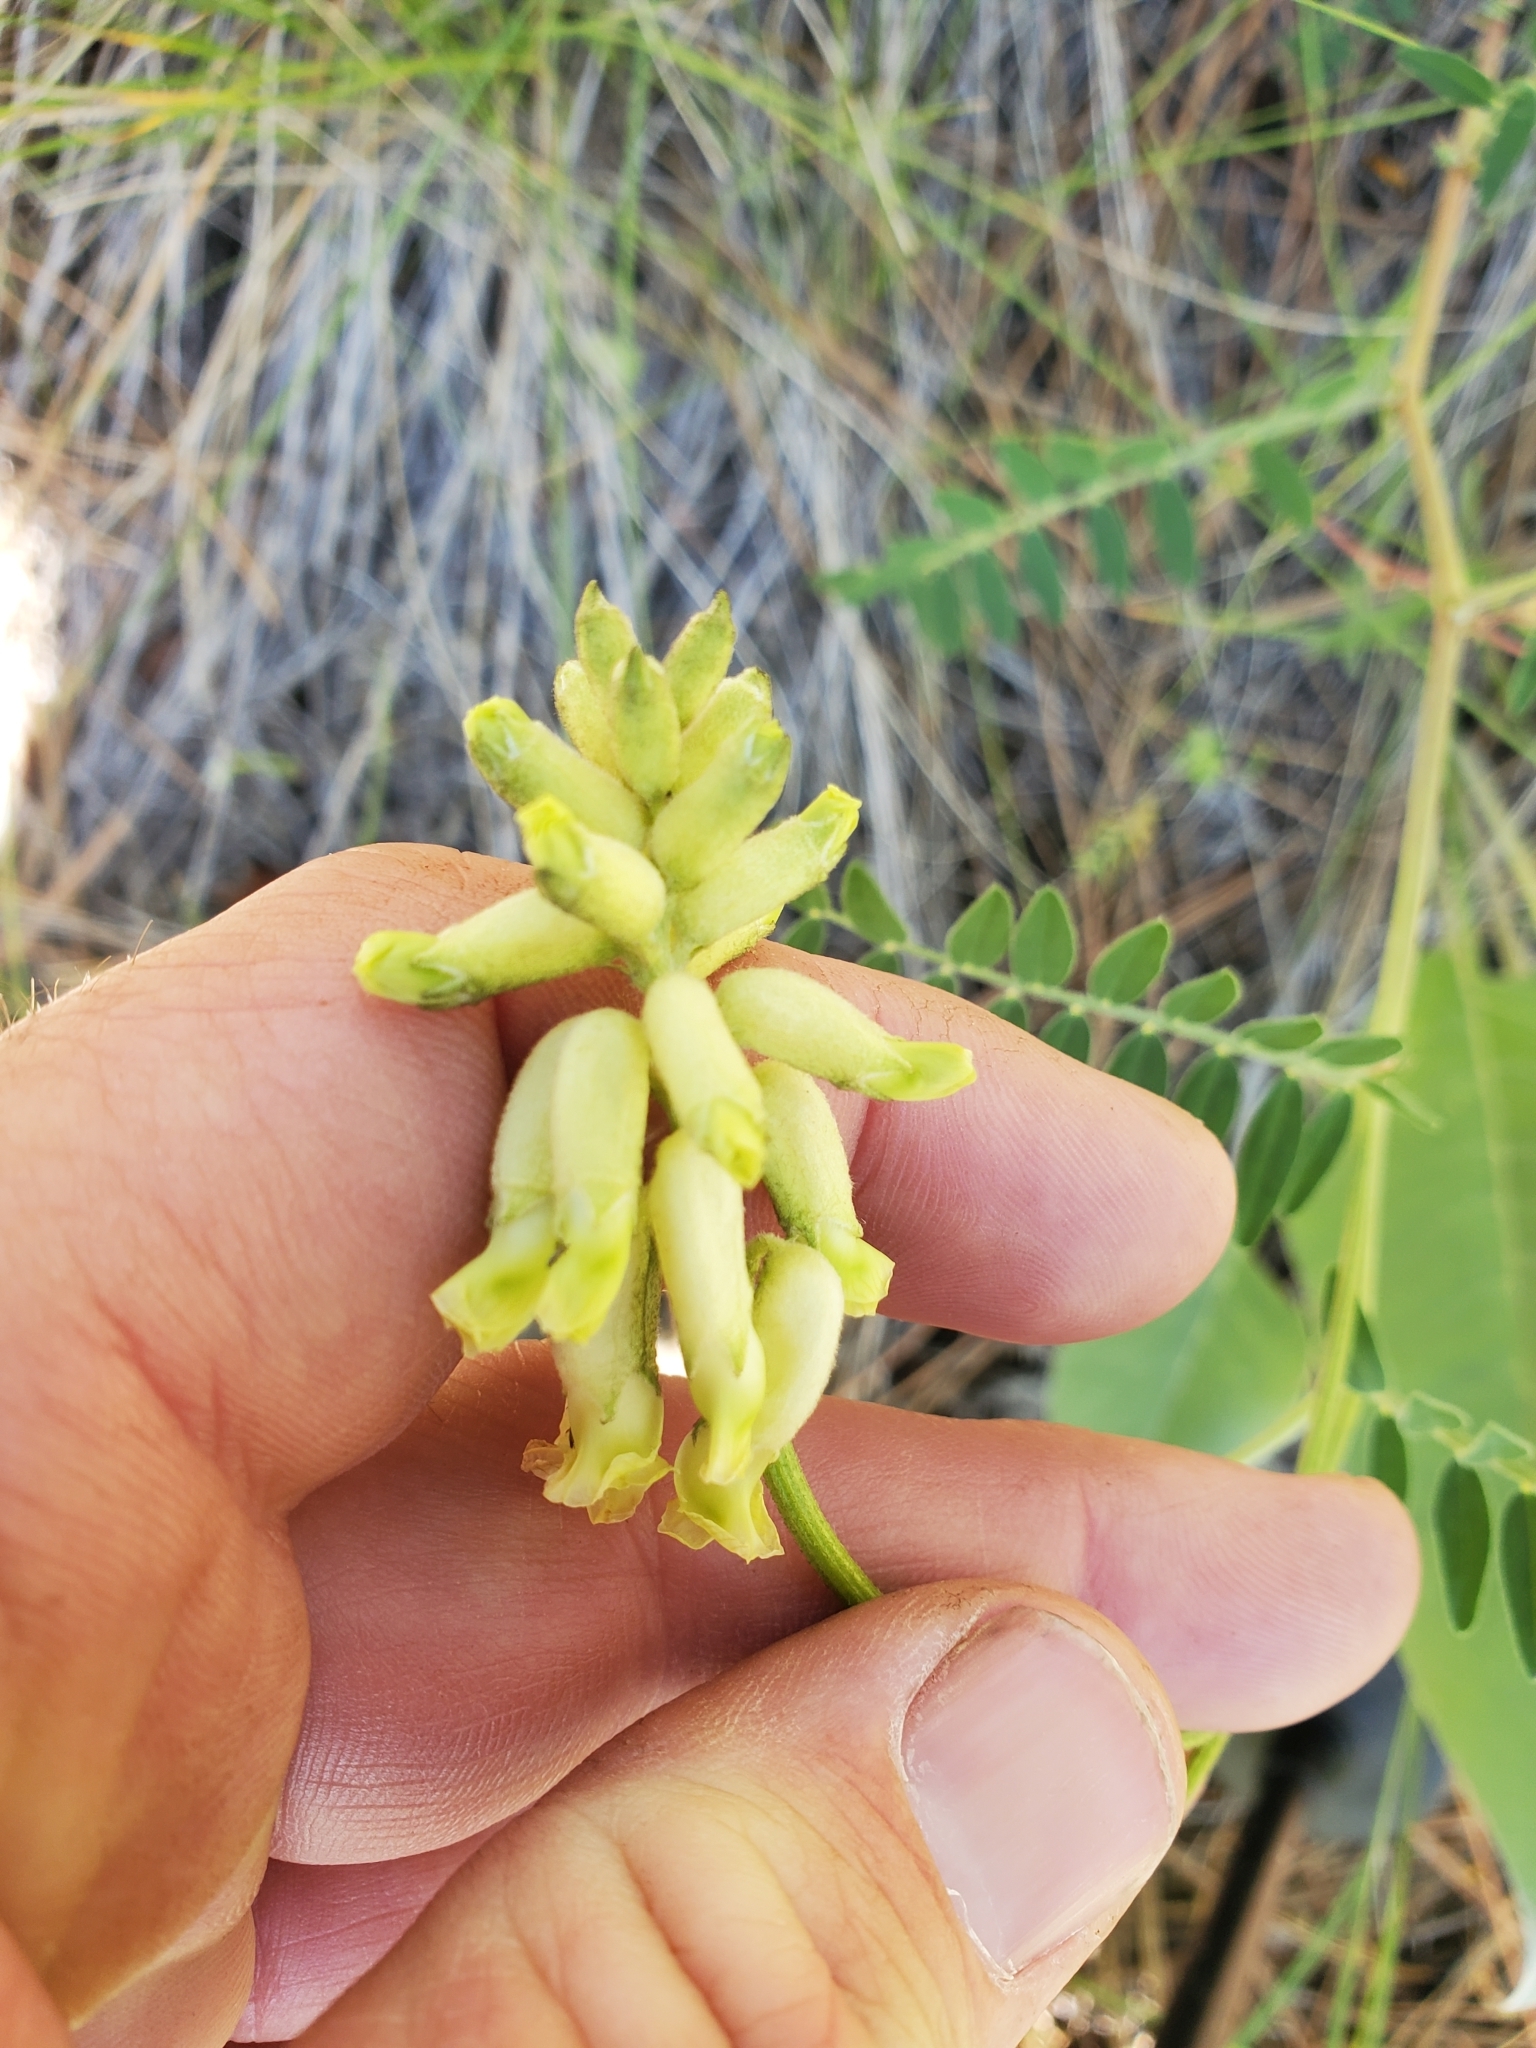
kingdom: Plantae
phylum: Tracheophyta
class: Magnoliopsida
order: Fabales
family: Fabaceae
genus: Astragalus
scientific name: Astragalus collinus
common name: Hill milk-vetch
